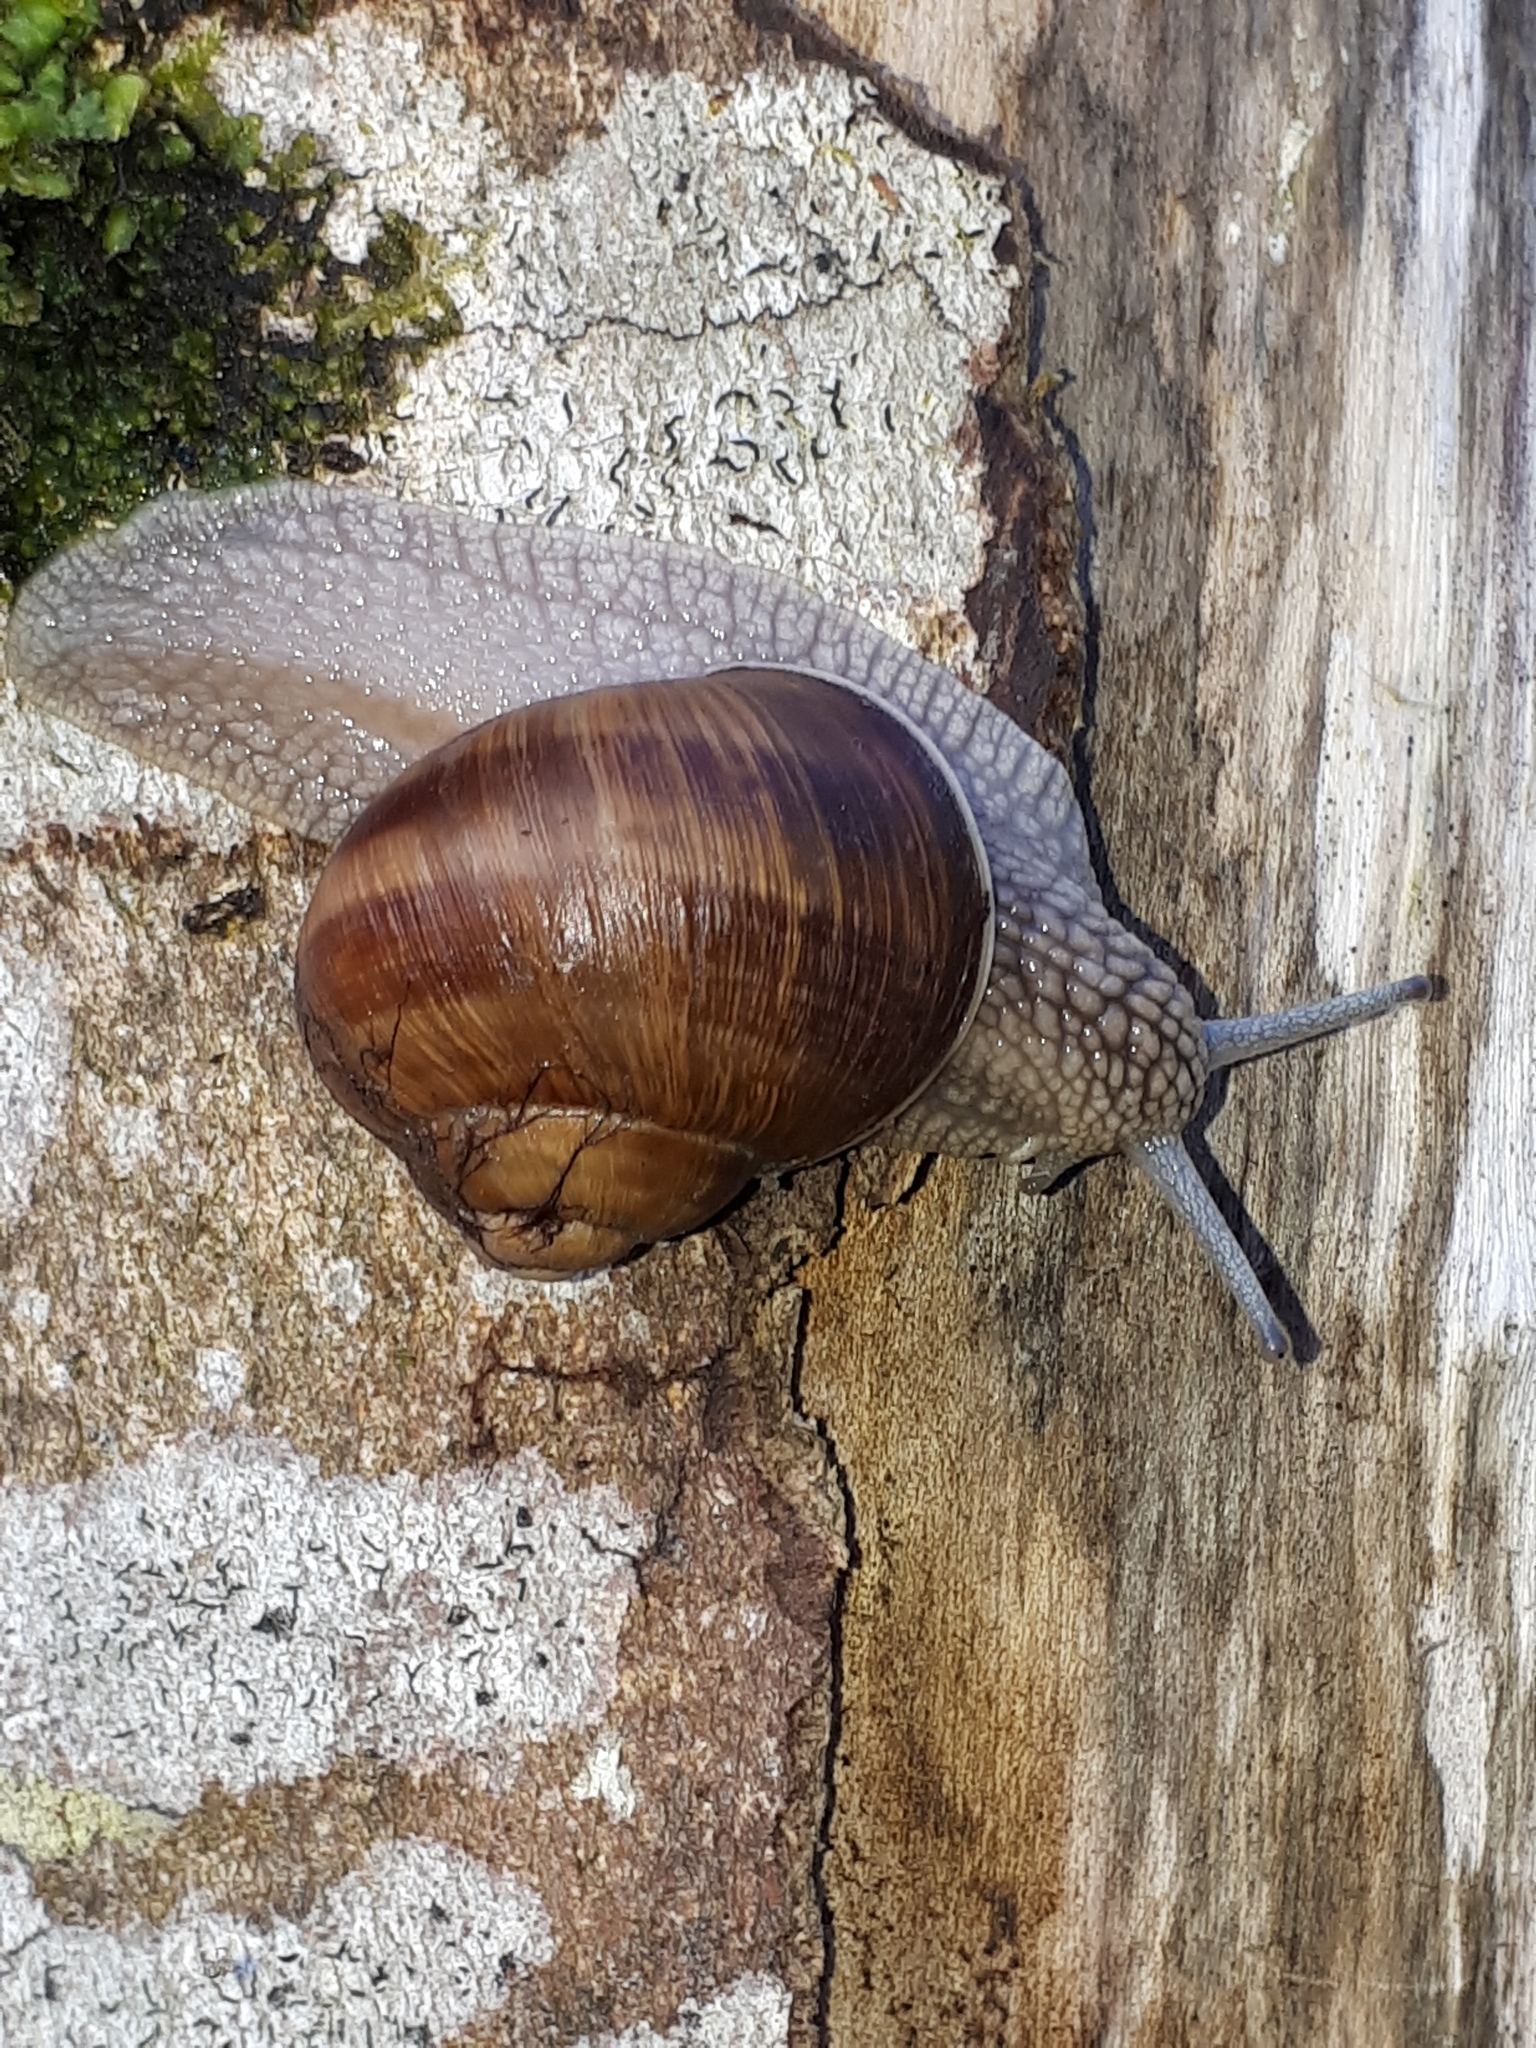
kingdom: Animalia
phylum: Mollusca
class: Gastropoda
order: Stylommatophora
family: Helicidae
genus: Helix
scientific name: Helix pomatia
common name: Roman snail
